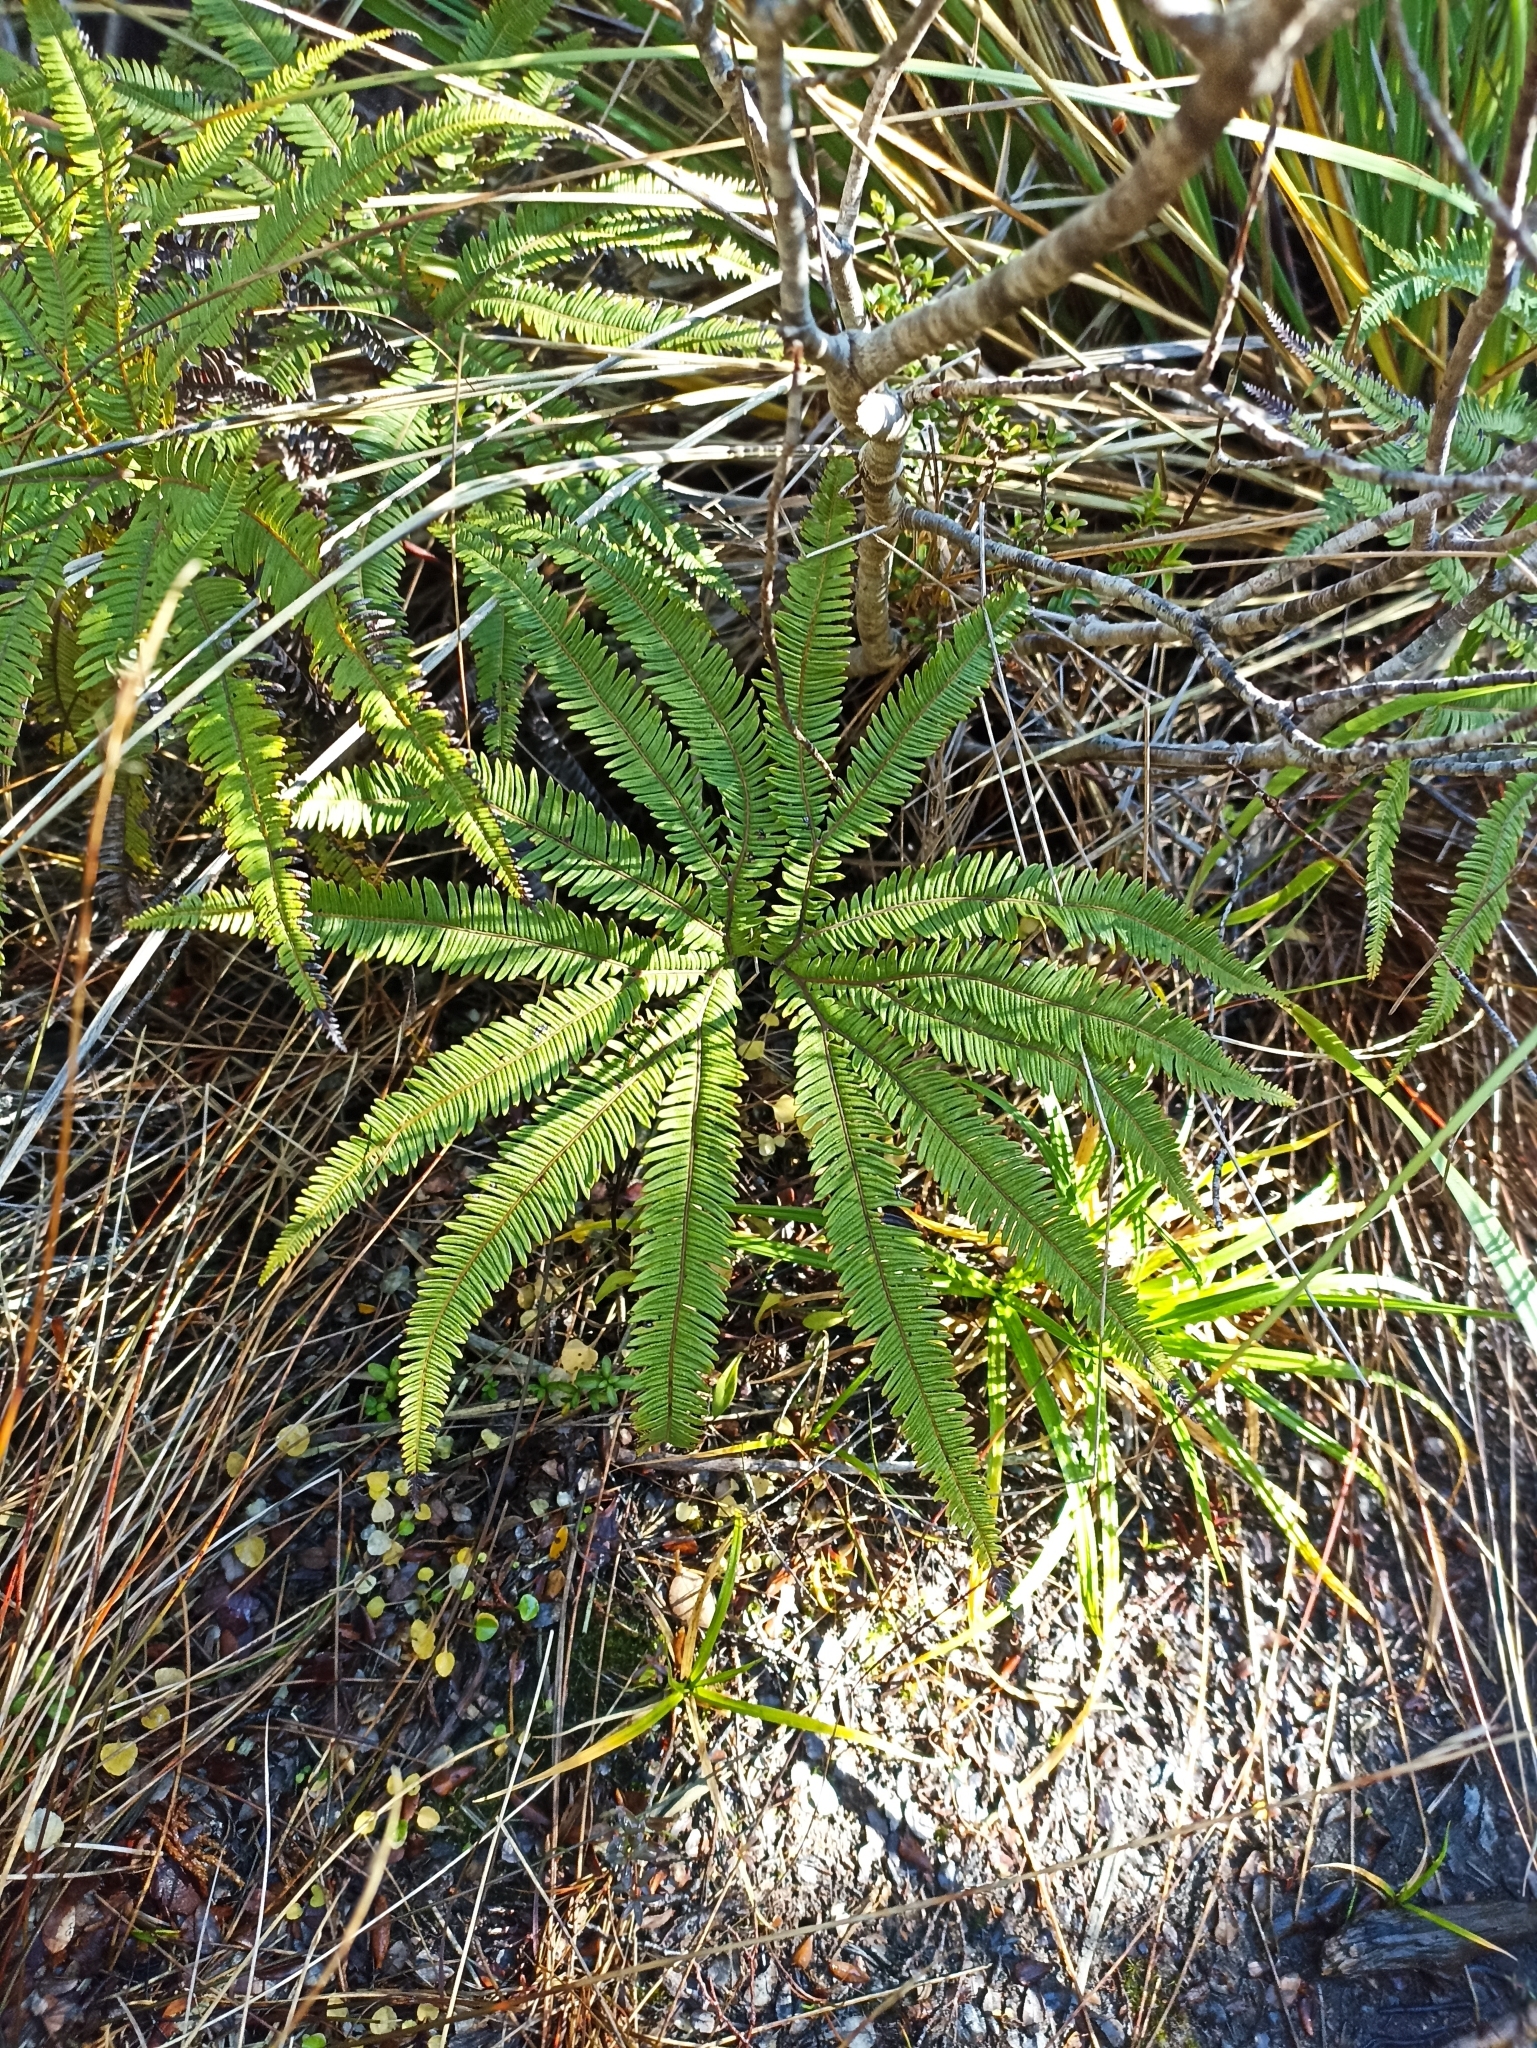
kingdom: Plantae
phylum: Tracheophyta
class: Polypodiopsida
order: Gleicheniales
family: Gleicheniaceae
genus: Sticherus
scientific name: Sticherus cunninghamii
